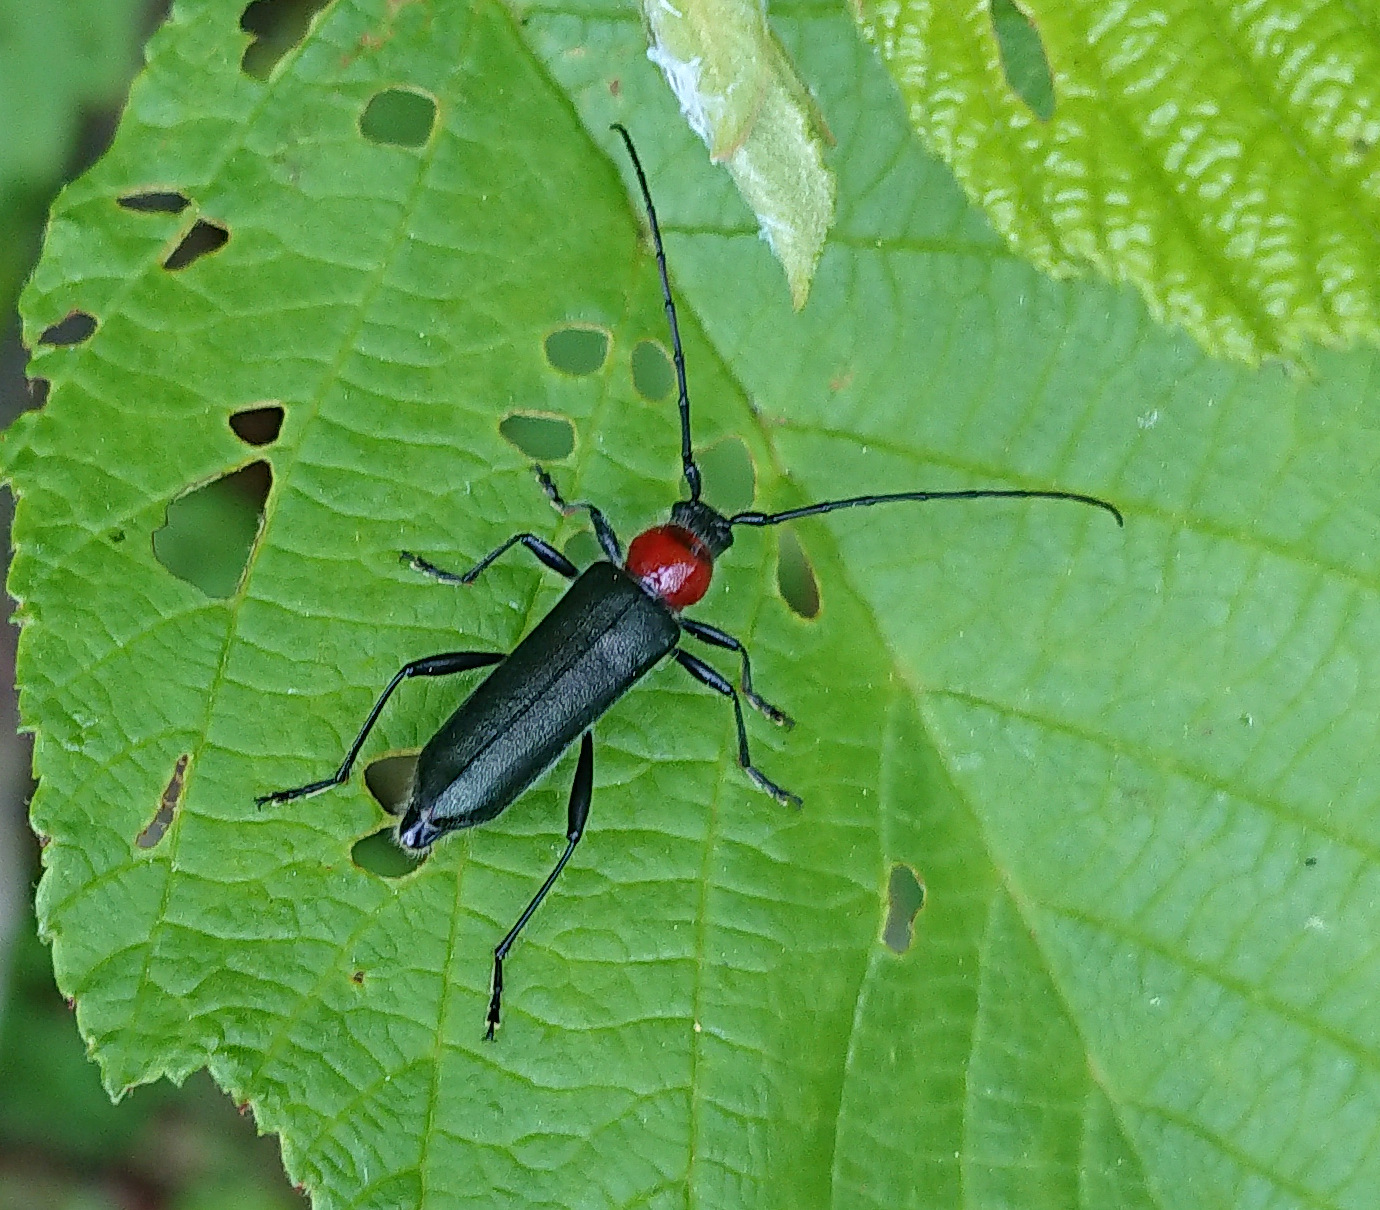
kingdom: Animalia
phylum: Arthropoda
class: Insecta
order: Coleoptera
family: Cerambycidae
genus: Pronocera
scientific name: Pronocera collaris
